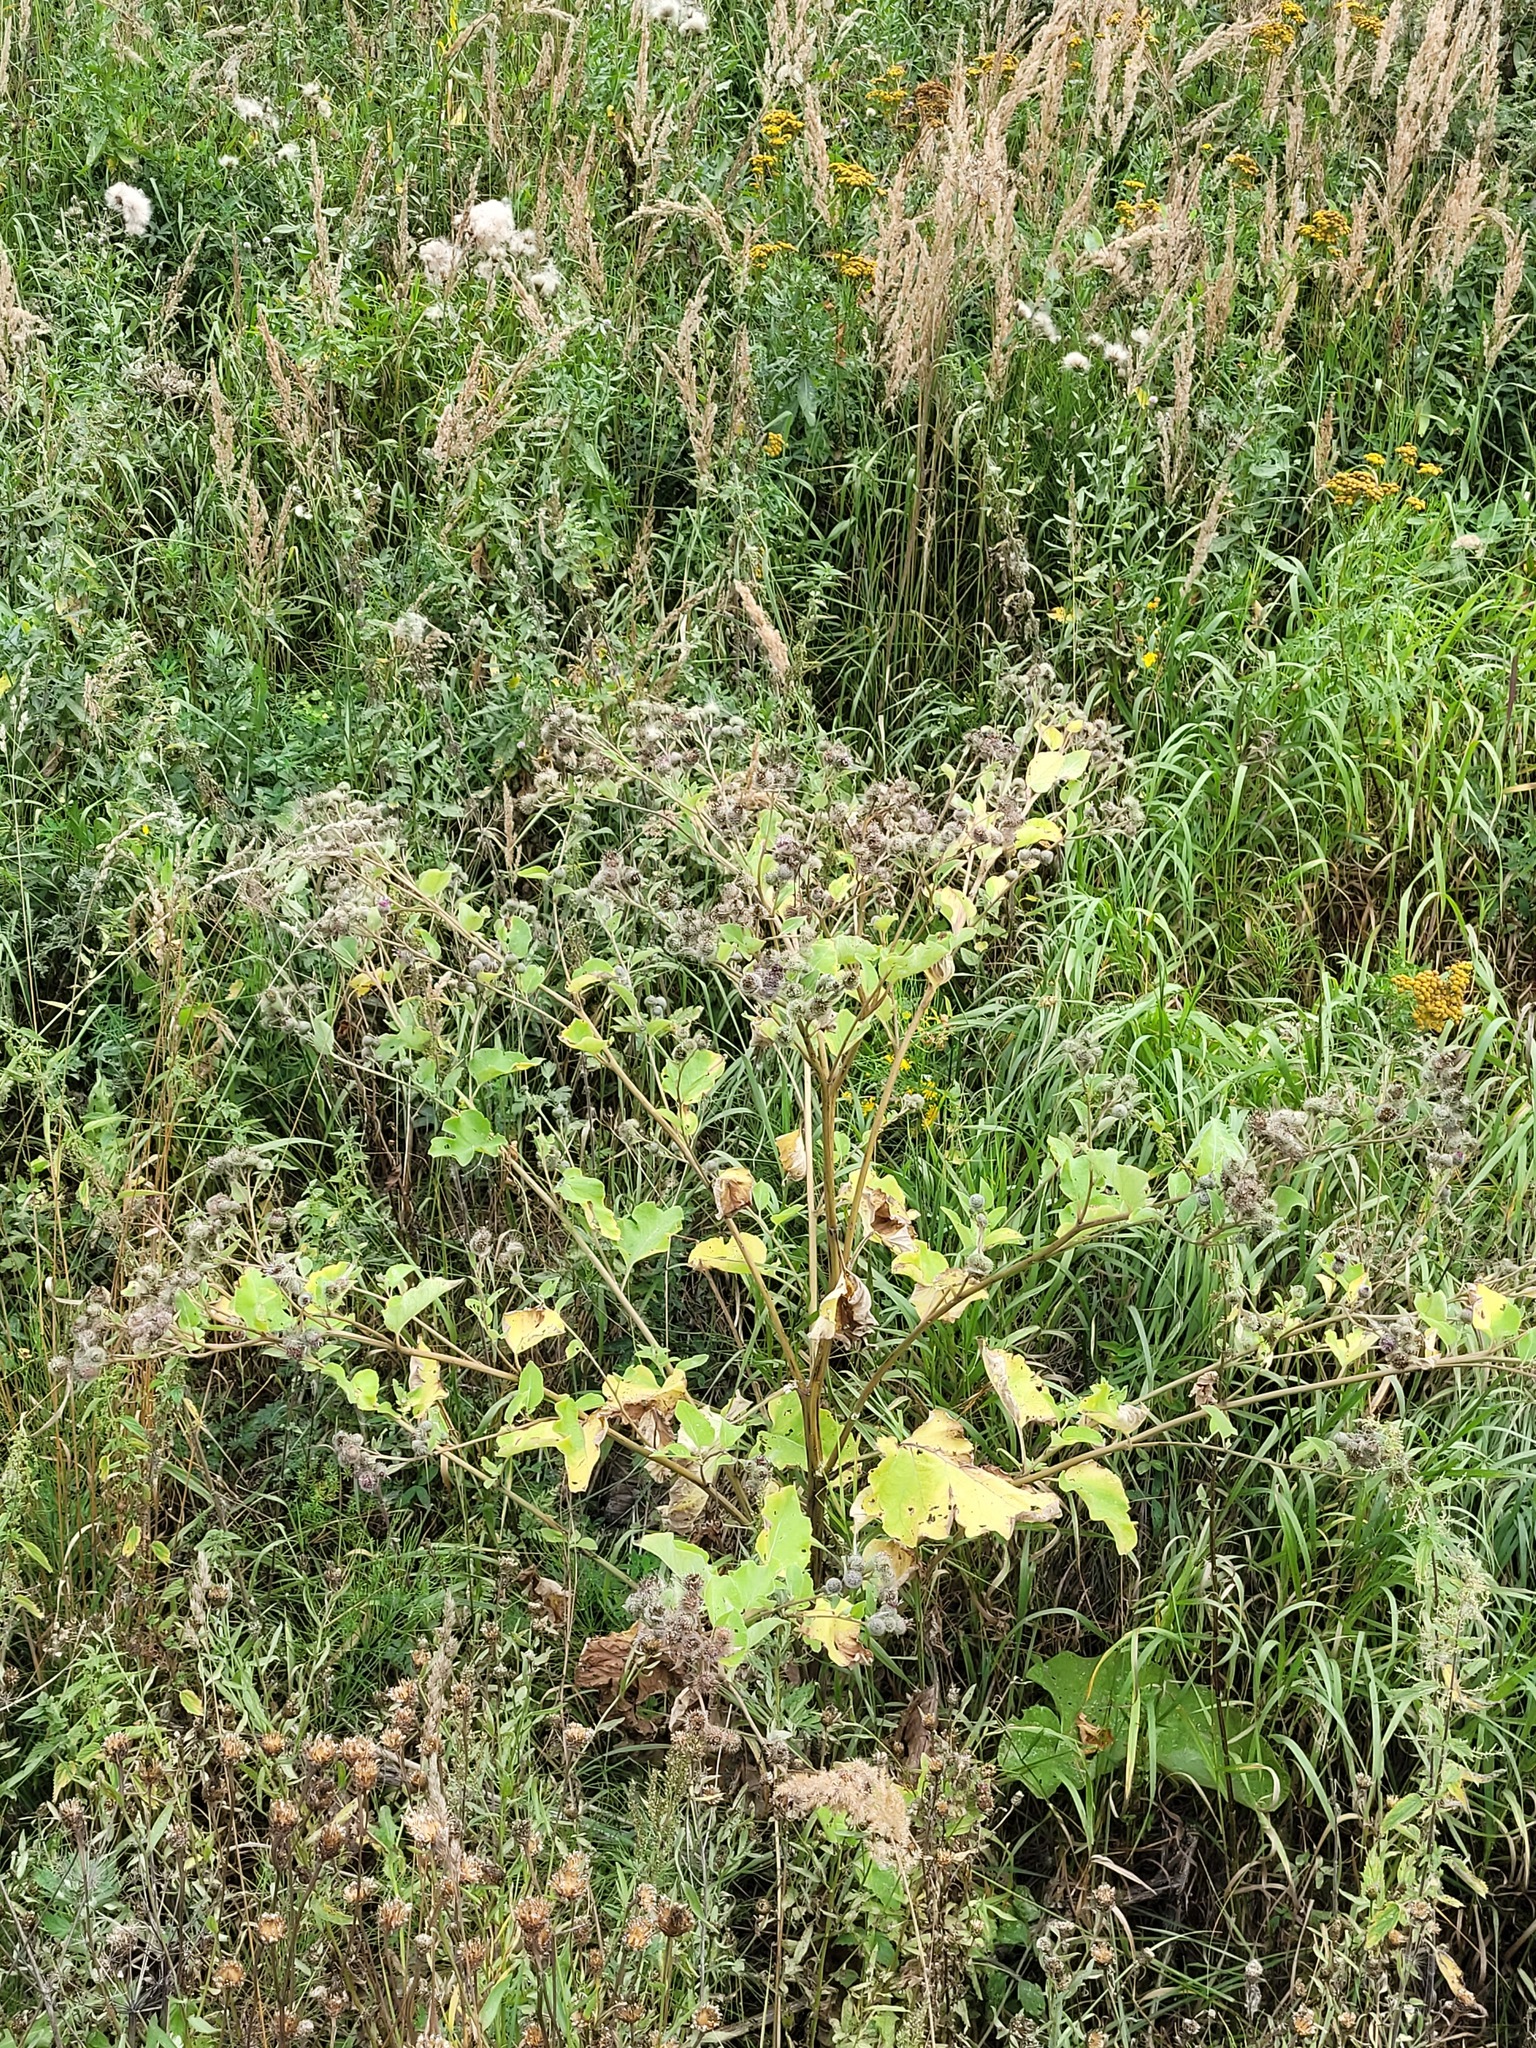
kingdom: Plantae
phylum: Tracheophyta
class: Magnoliopsida
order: Asterales
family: Asteraceae
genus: Arctium
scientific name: Arctium tomentosum
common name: Woolly burdock
